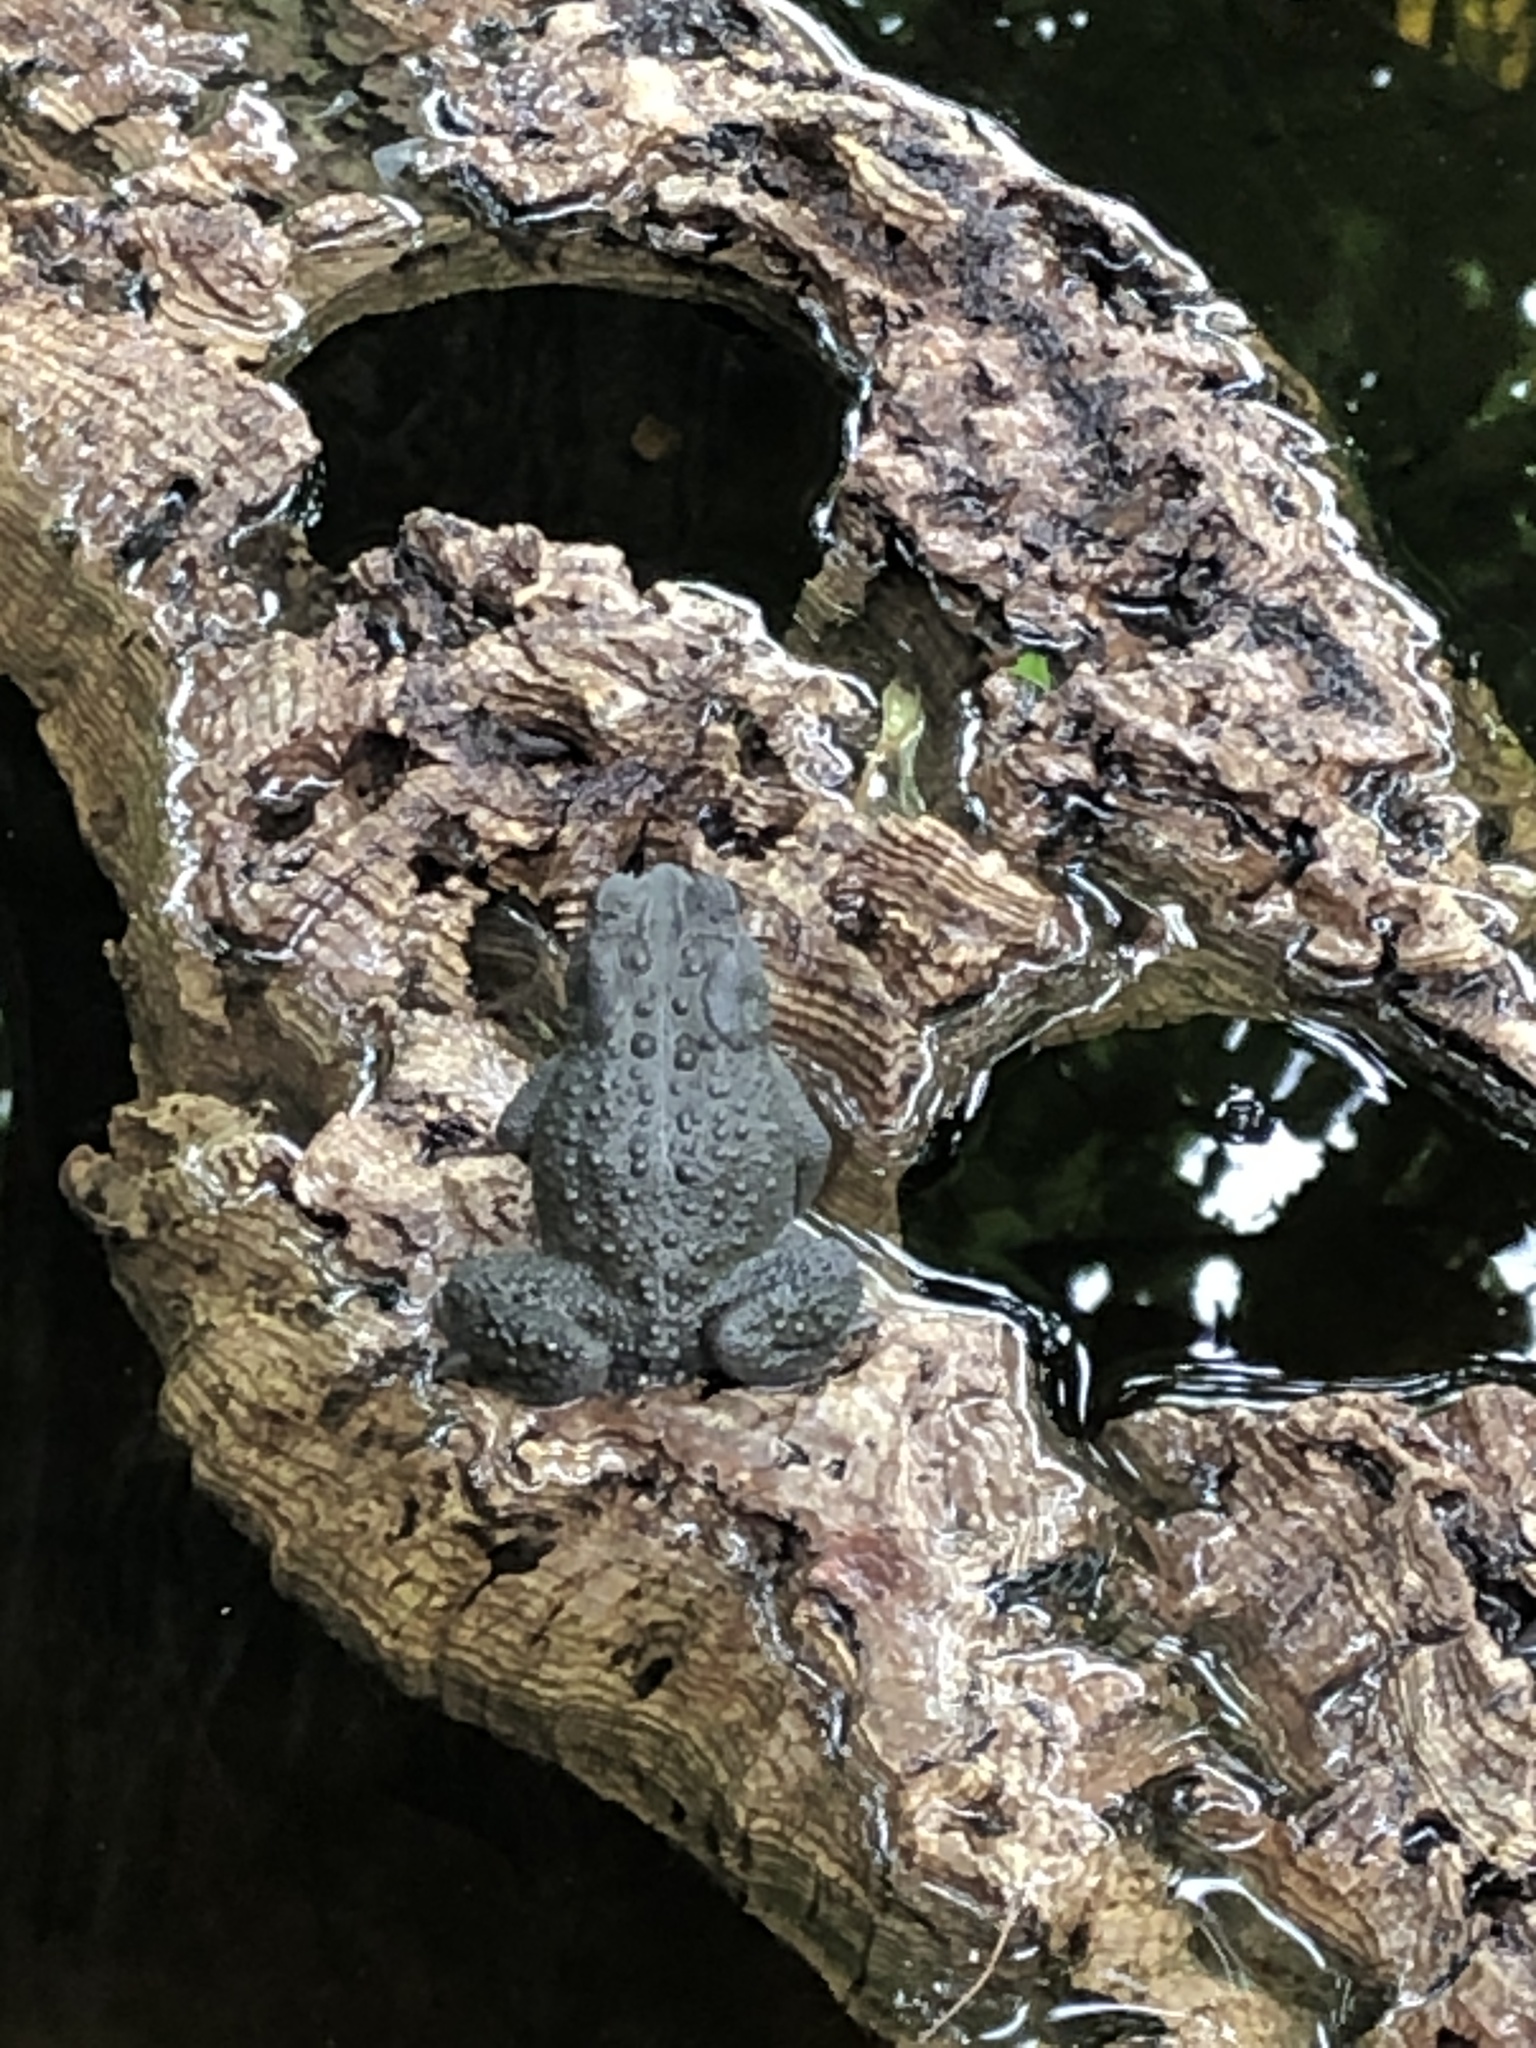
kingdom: Animalia
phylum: Chordata
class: Amphibia
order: Anura
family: Bufonidae
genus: Anaxyrus
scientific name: Anaxyrus americanus
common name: American toad
